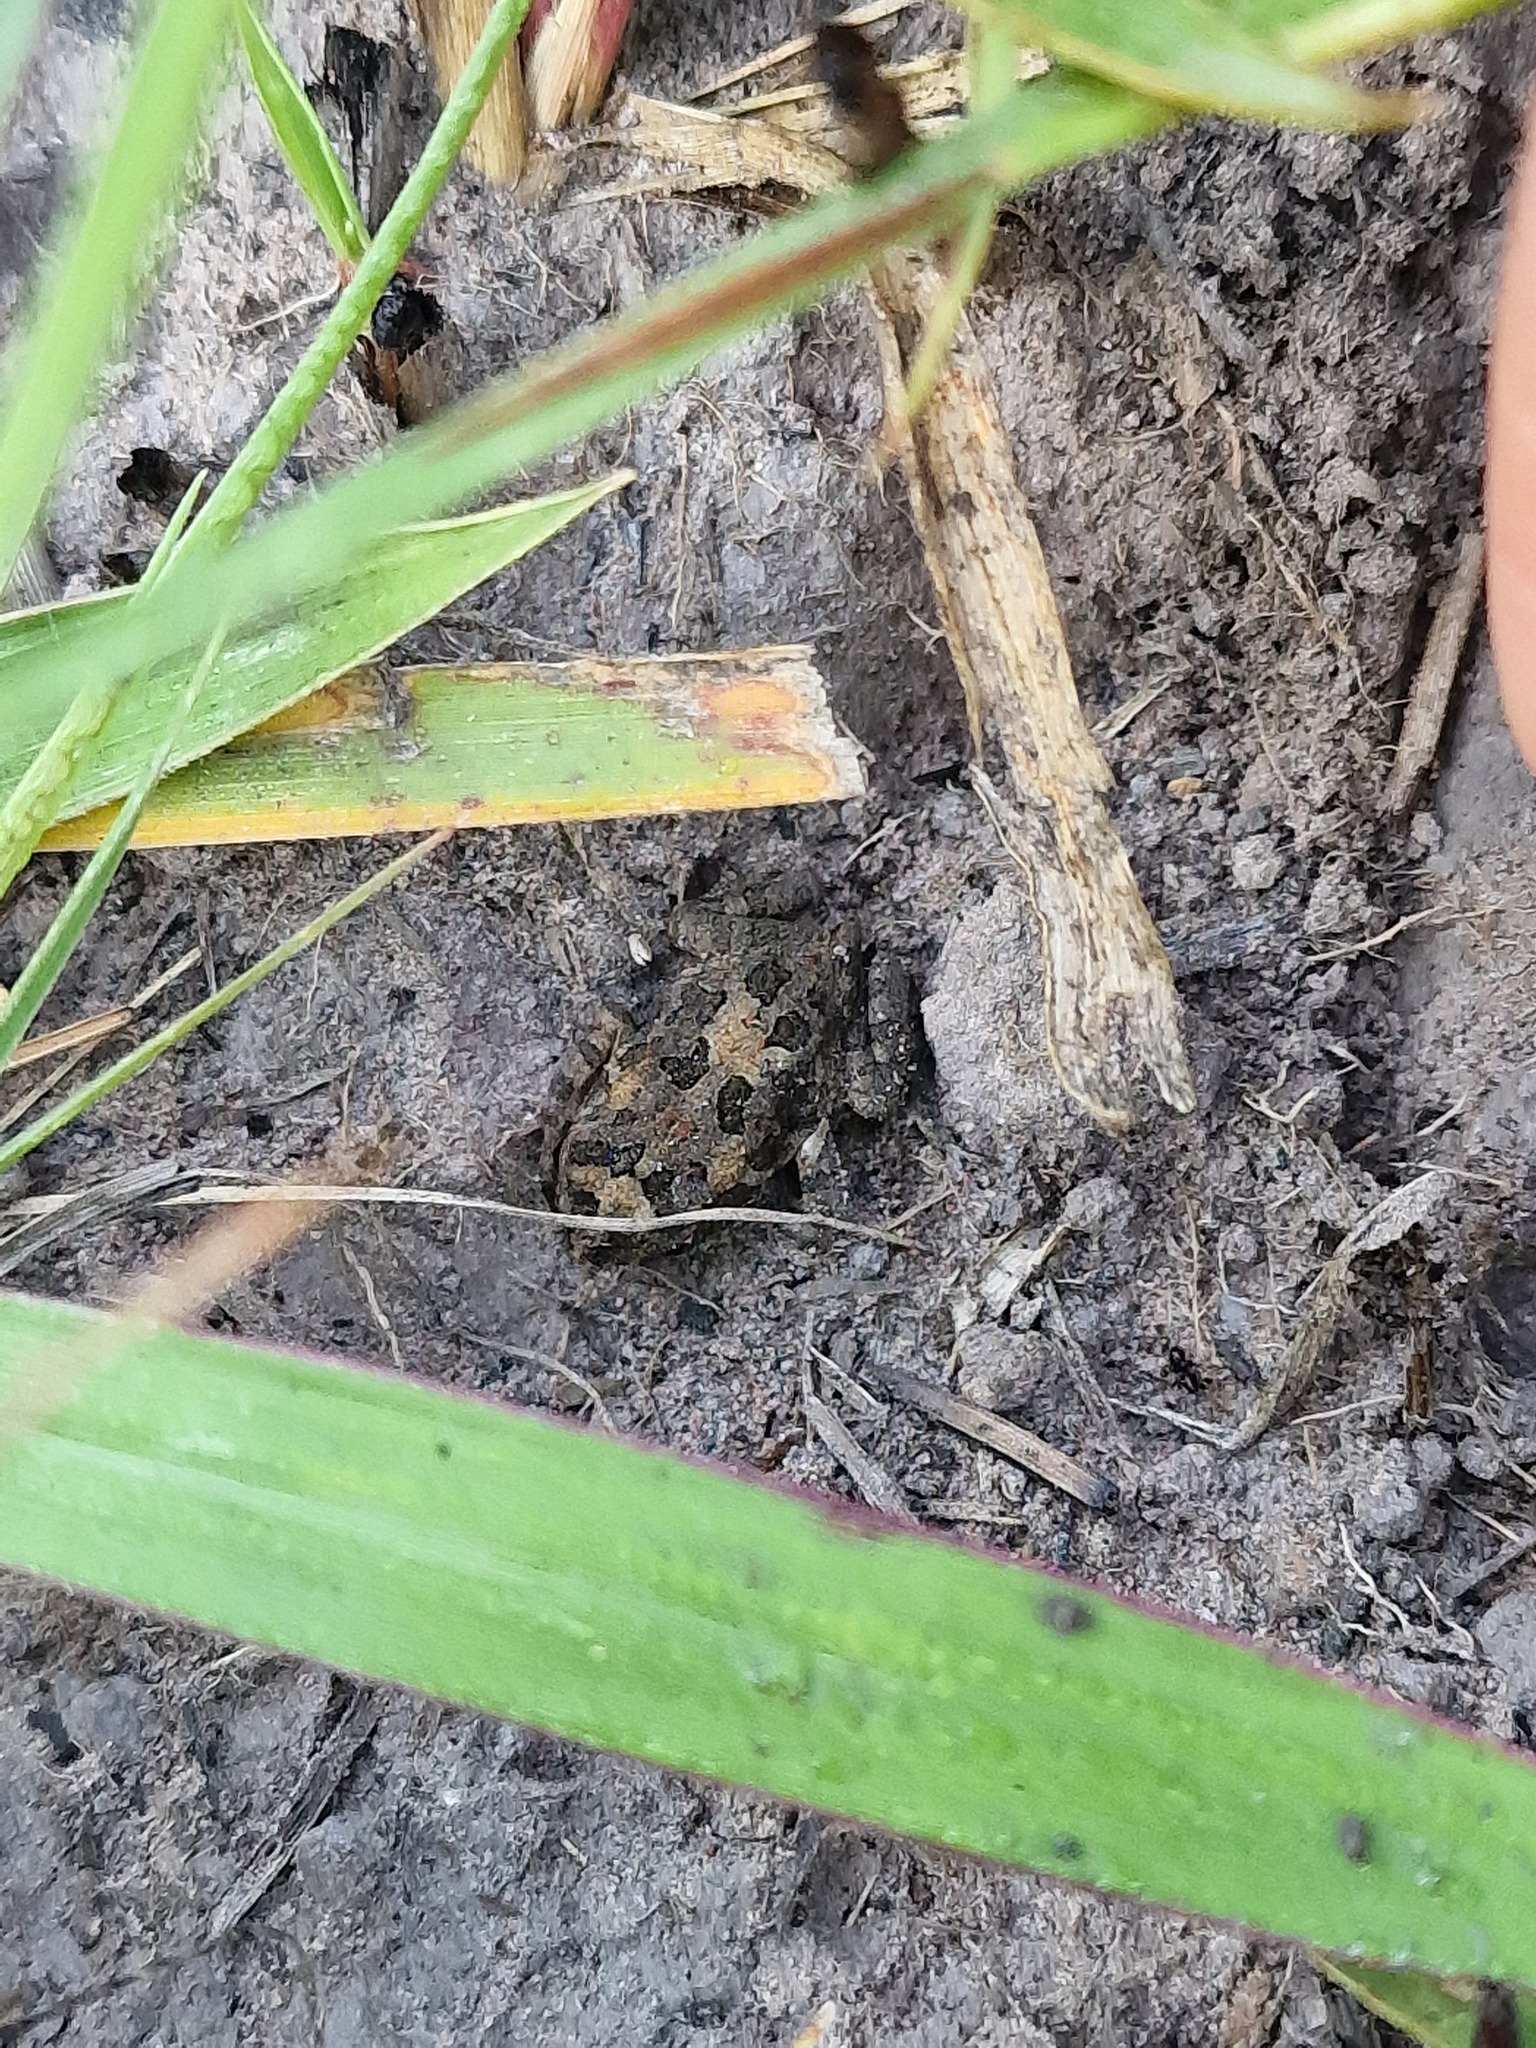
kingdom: Animalia
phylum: Chordata
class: Amphibia
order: Anura
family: Bufonidae
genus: Sclerophrys
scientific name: Sclerophrys gutturalis
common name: African common toad
